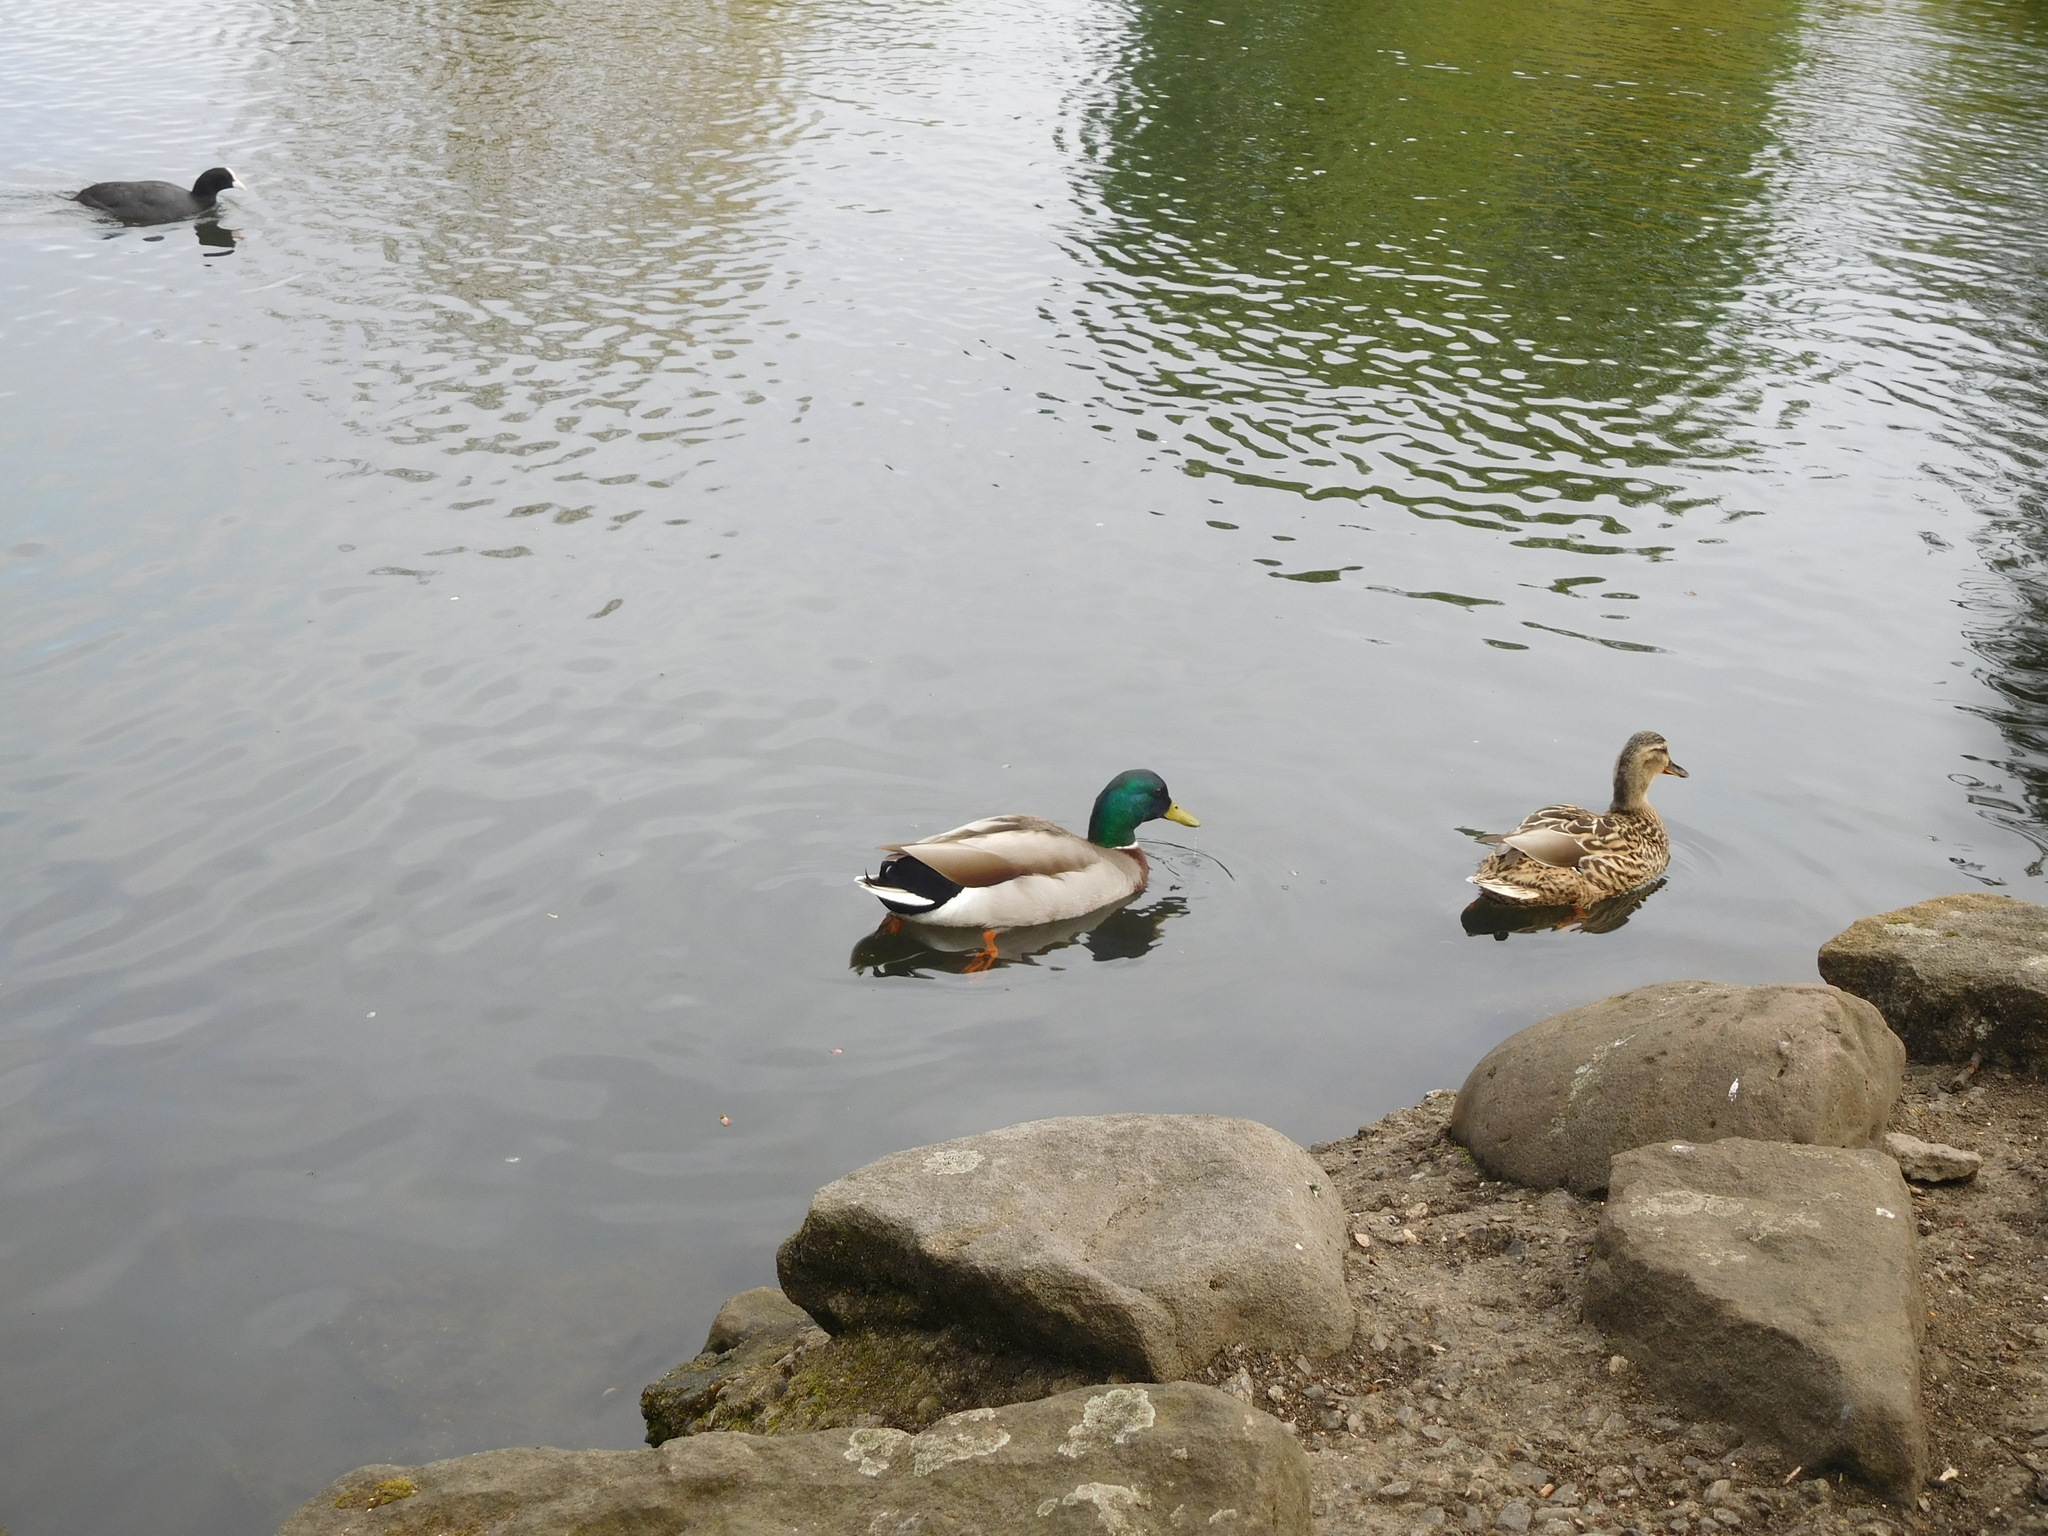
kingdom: Animalia
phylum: Chordata
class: Aves
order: Anseriformes
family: Anatidae
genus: Anas
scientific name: Anas platyrhynchos
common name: Mallard
